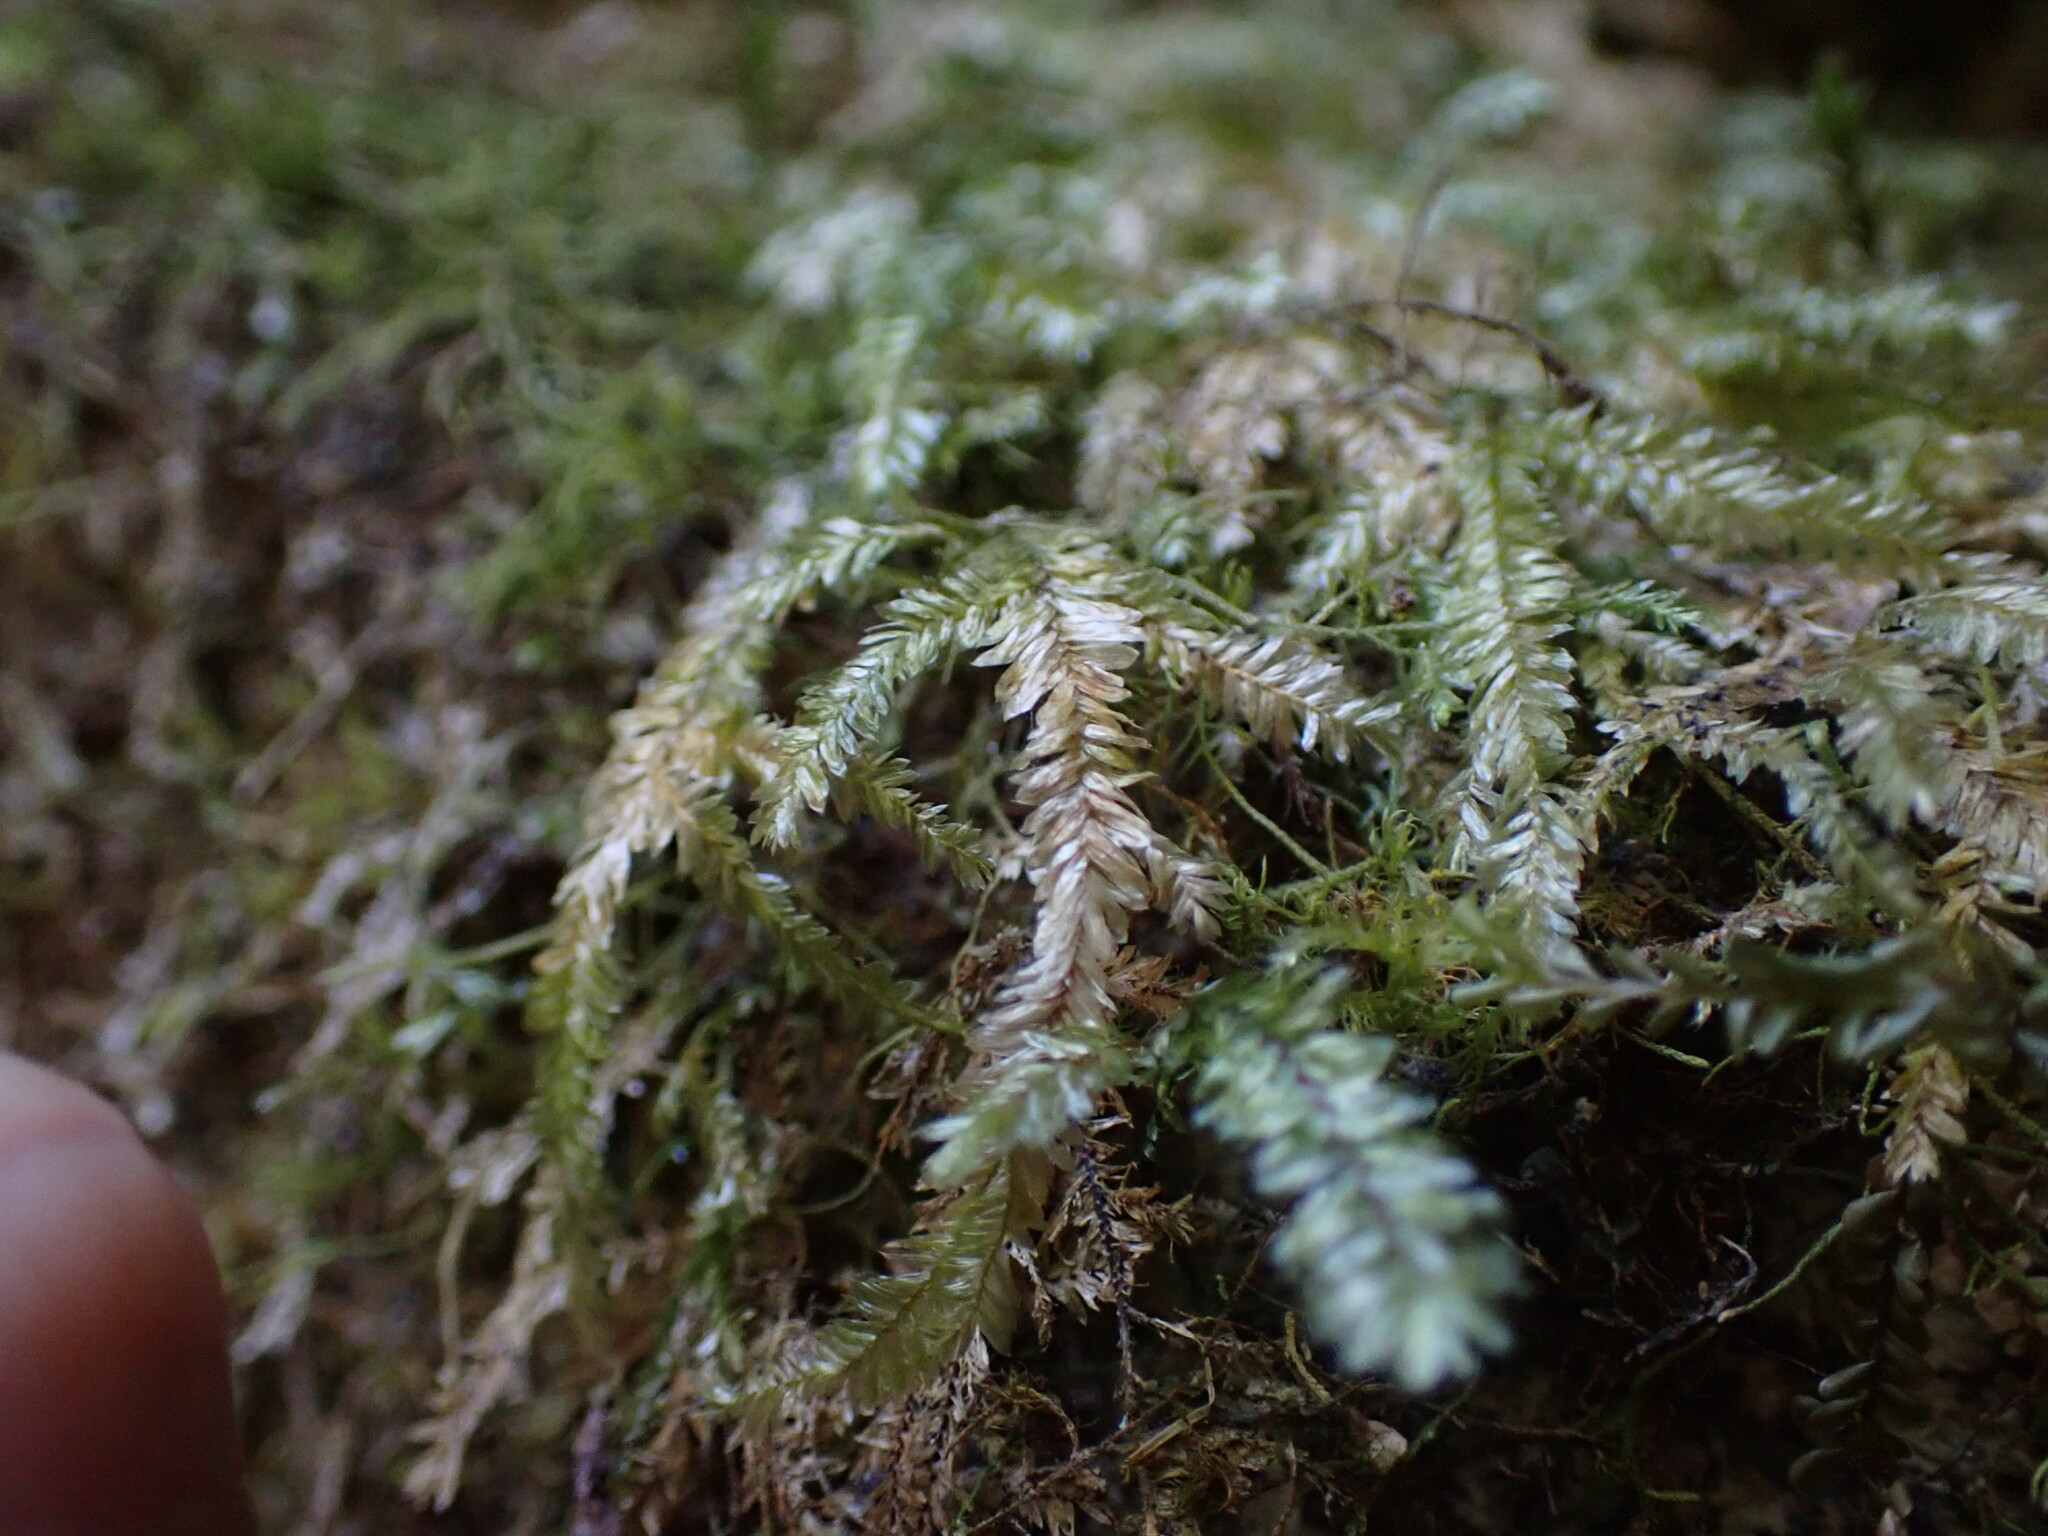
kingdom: Plantae
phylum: Bryophyta
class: Bryopsida
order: Hypnales
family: Neckeraceae
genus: Dannorrisia
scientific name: Dannorrisia bigelovii
